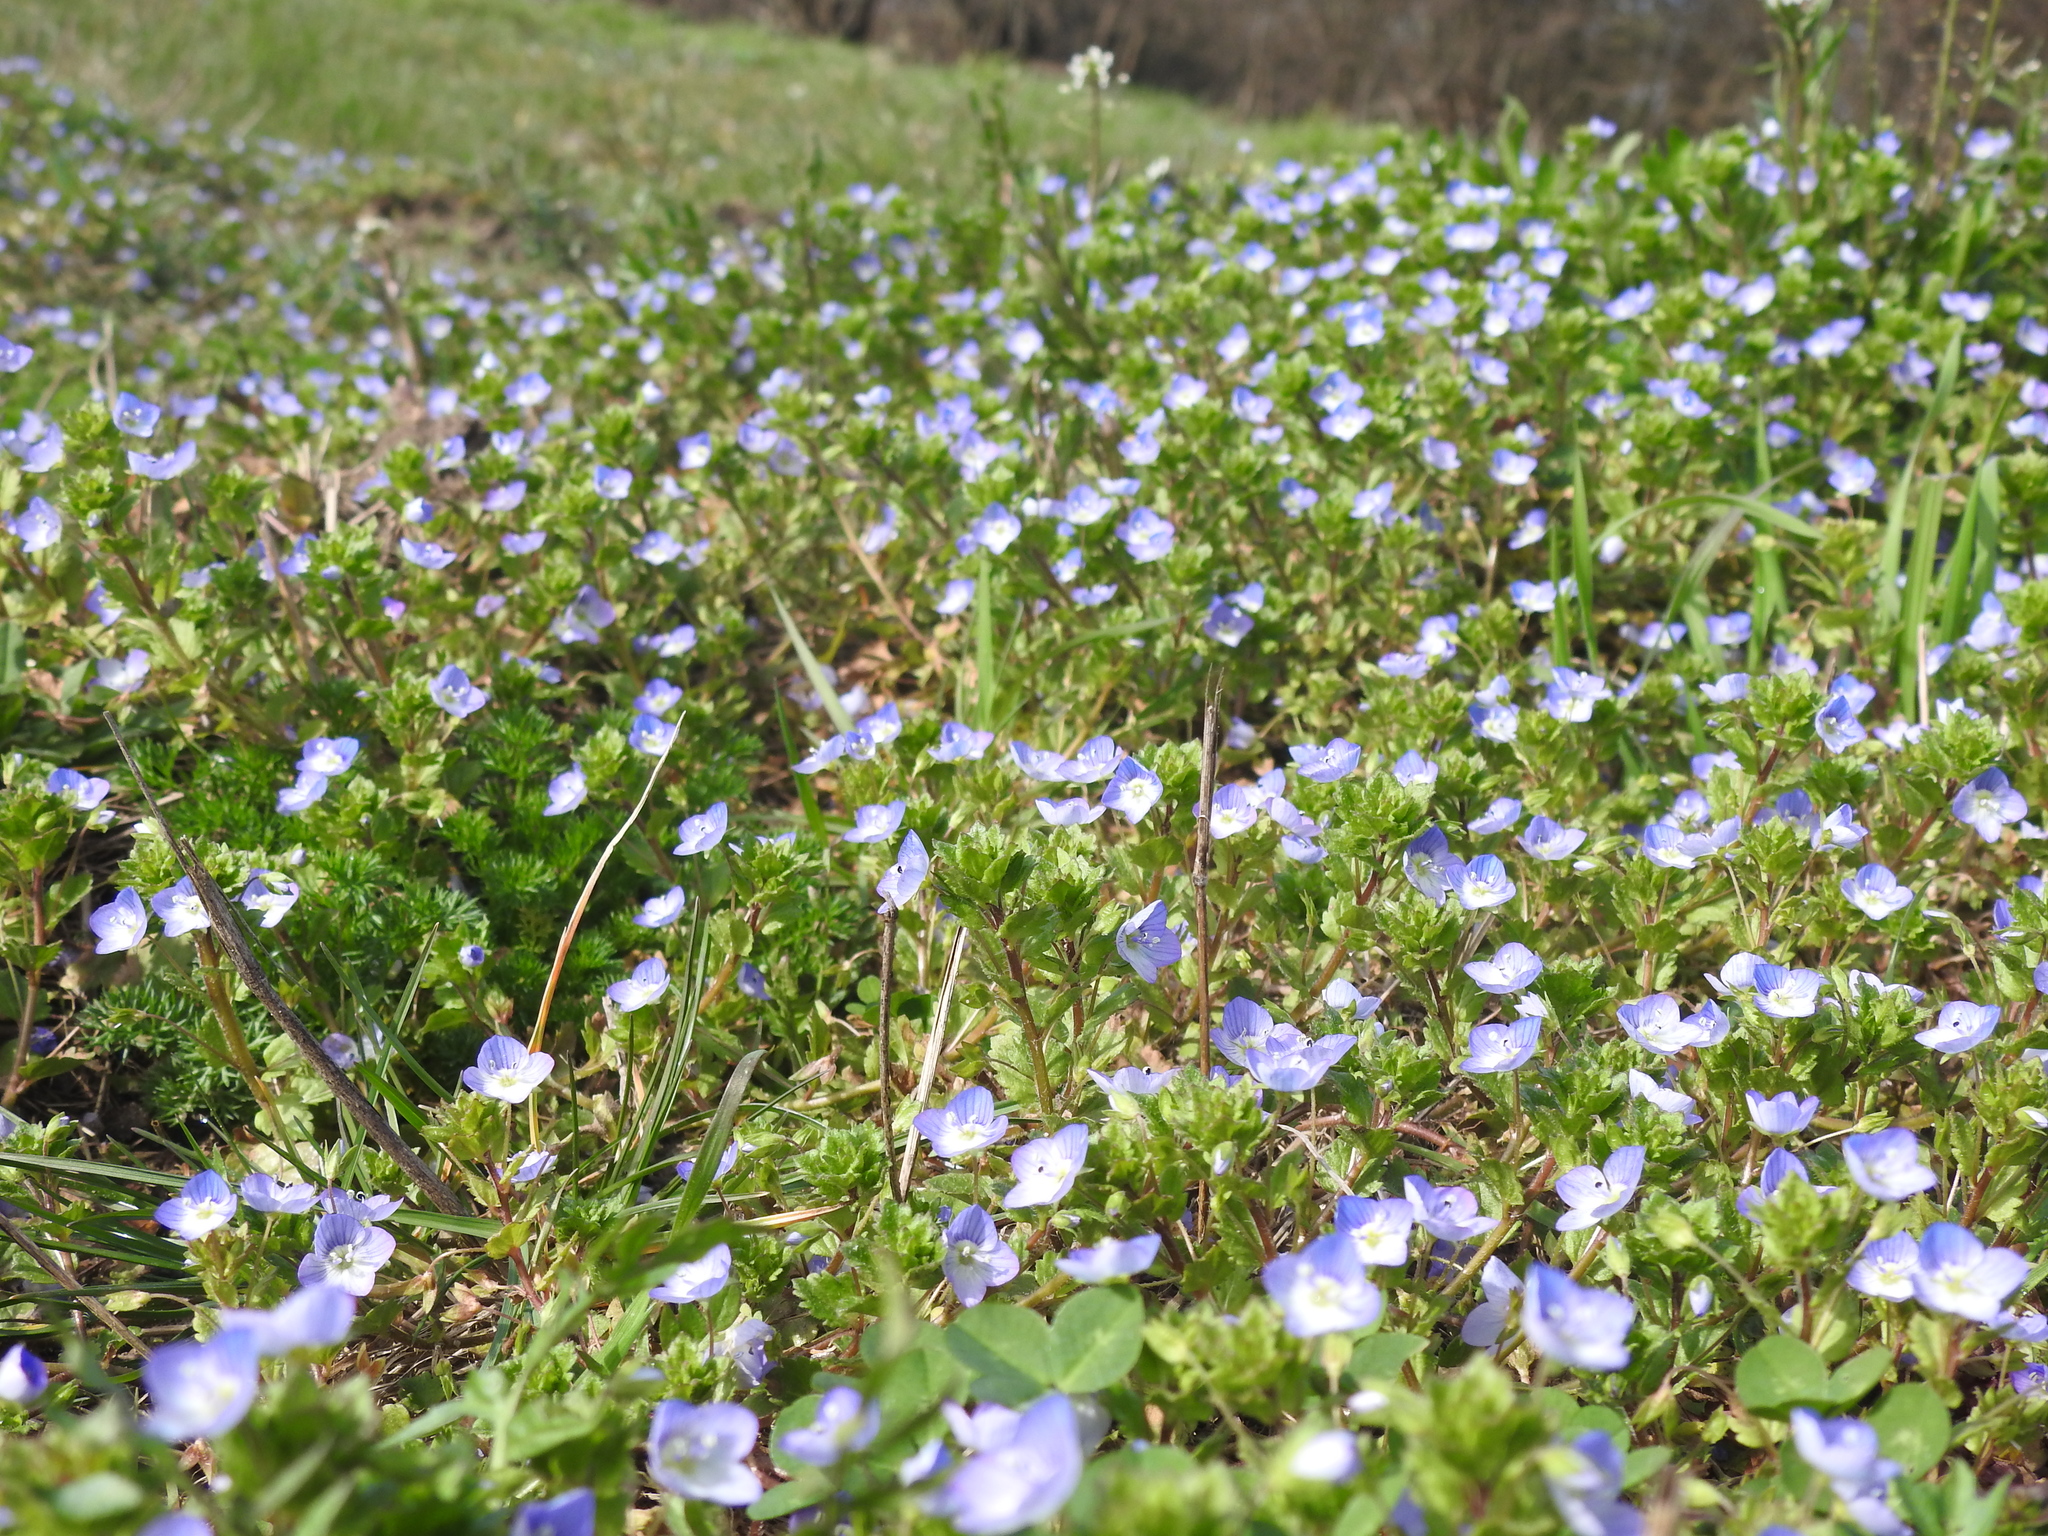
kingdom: Plantae
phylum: Tracheophyta
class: Magnoliopsida
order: Lamiales
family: Plantaginaceae
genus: Veronica
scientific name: Veronica persica
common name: Common field-speedwell
